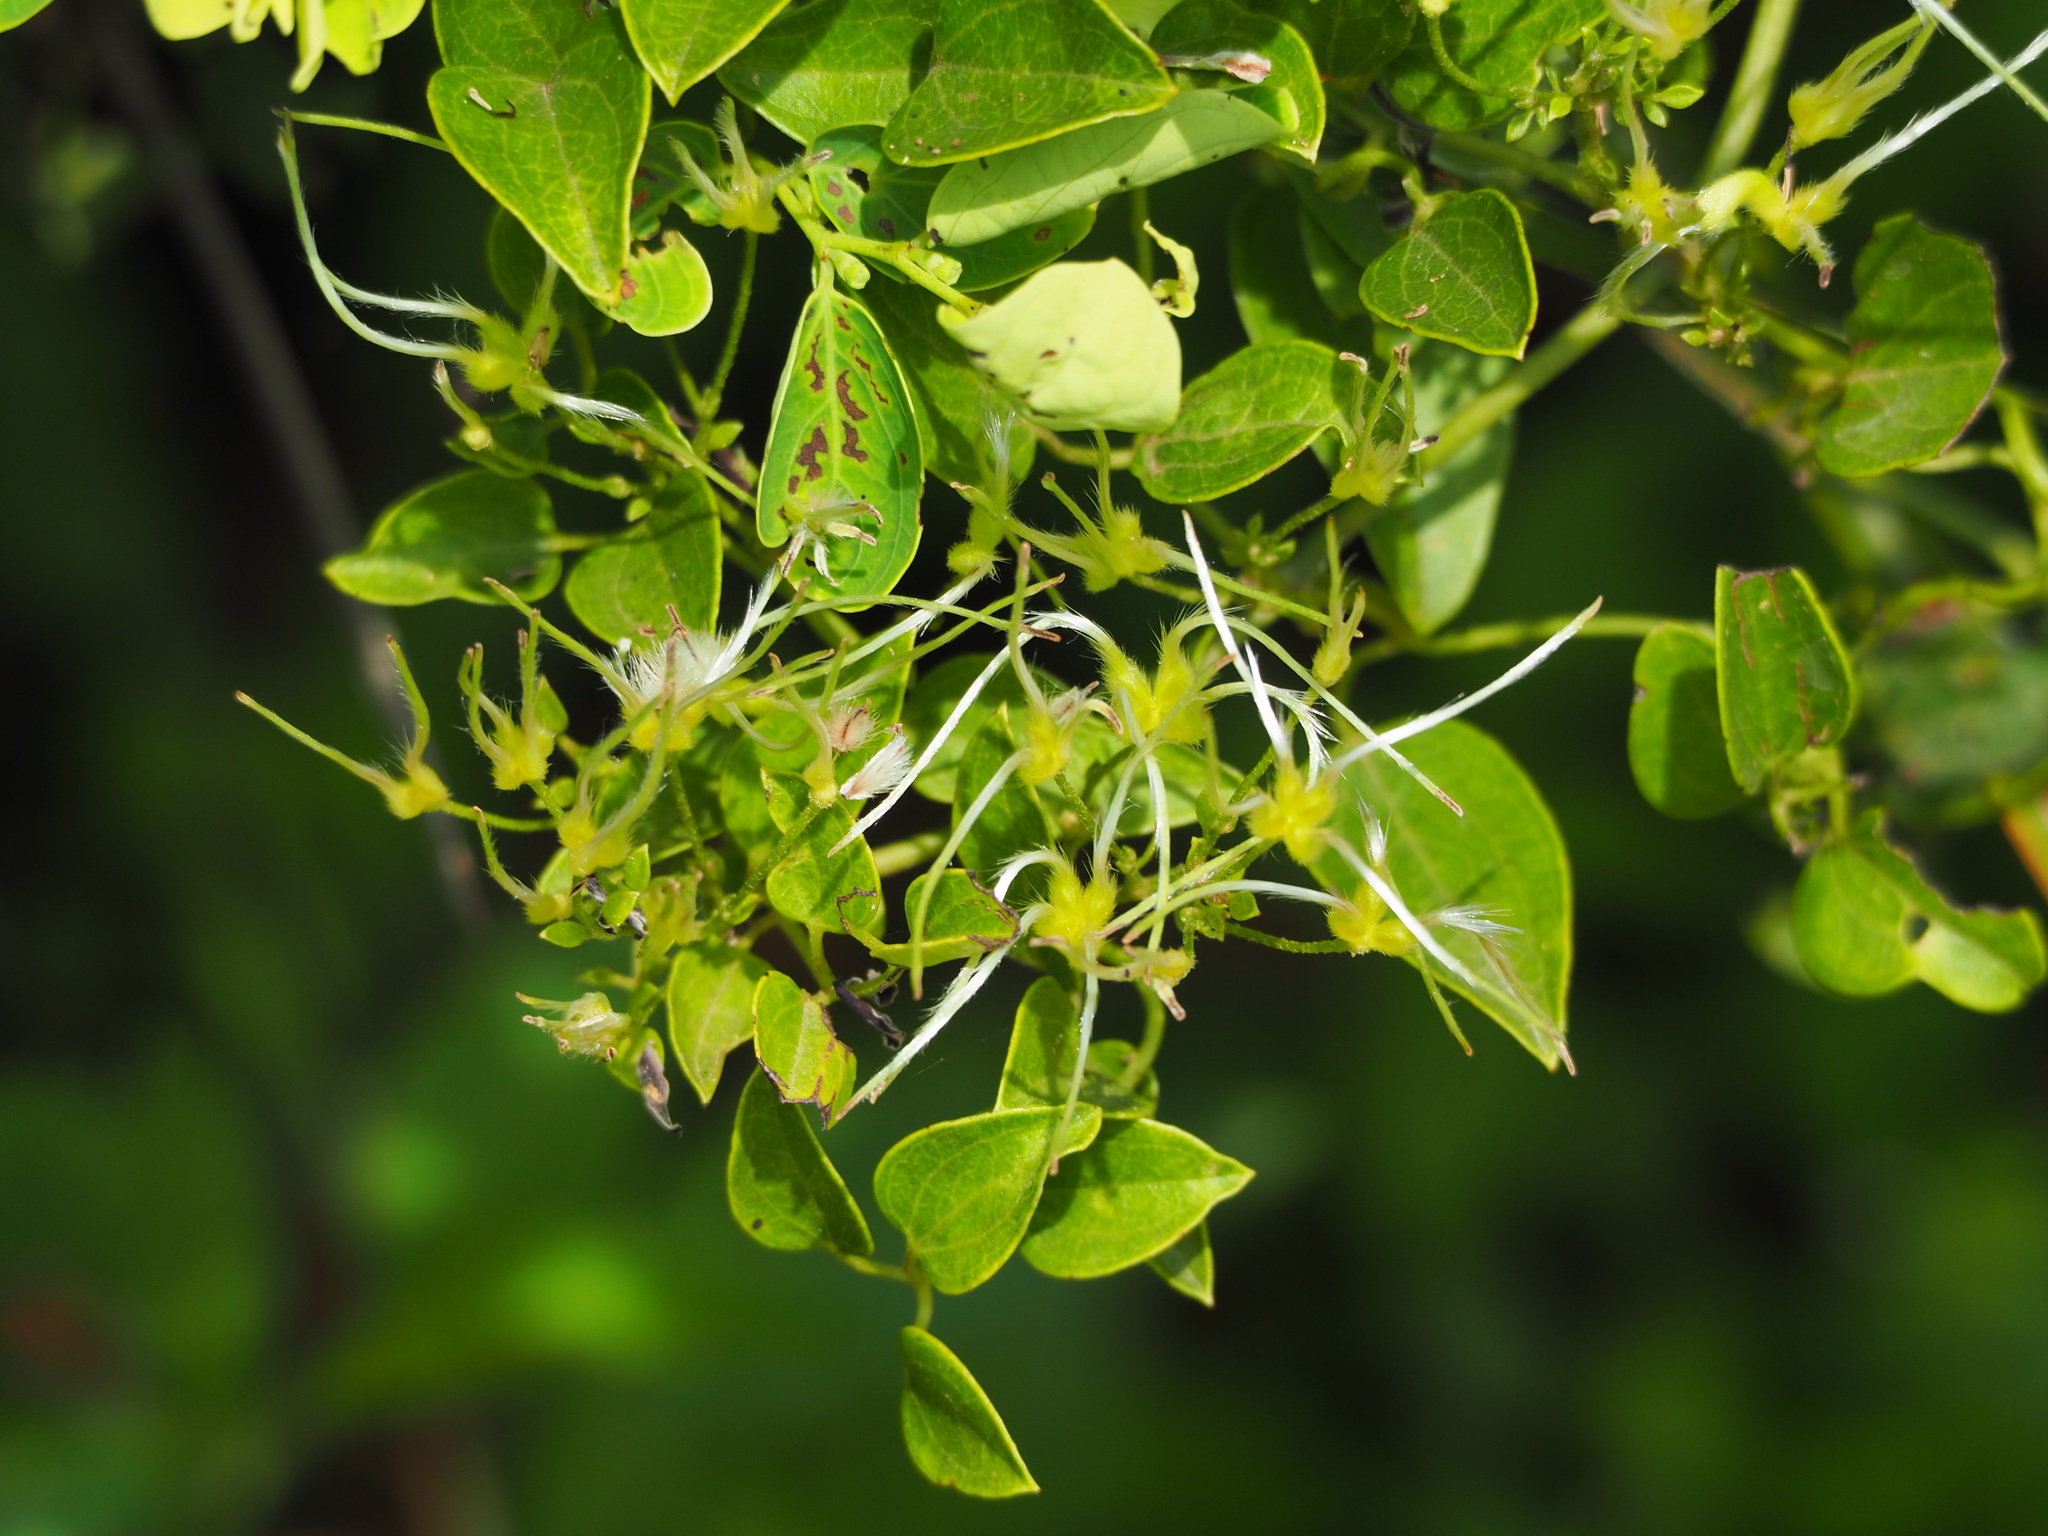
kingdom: Plantae
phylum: Tracheophyta
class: Magnoliopsida
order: Ranunculales
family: Ranunculaceae
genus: Clematis
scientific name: Clematis chinensis
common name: Chinese clematis
